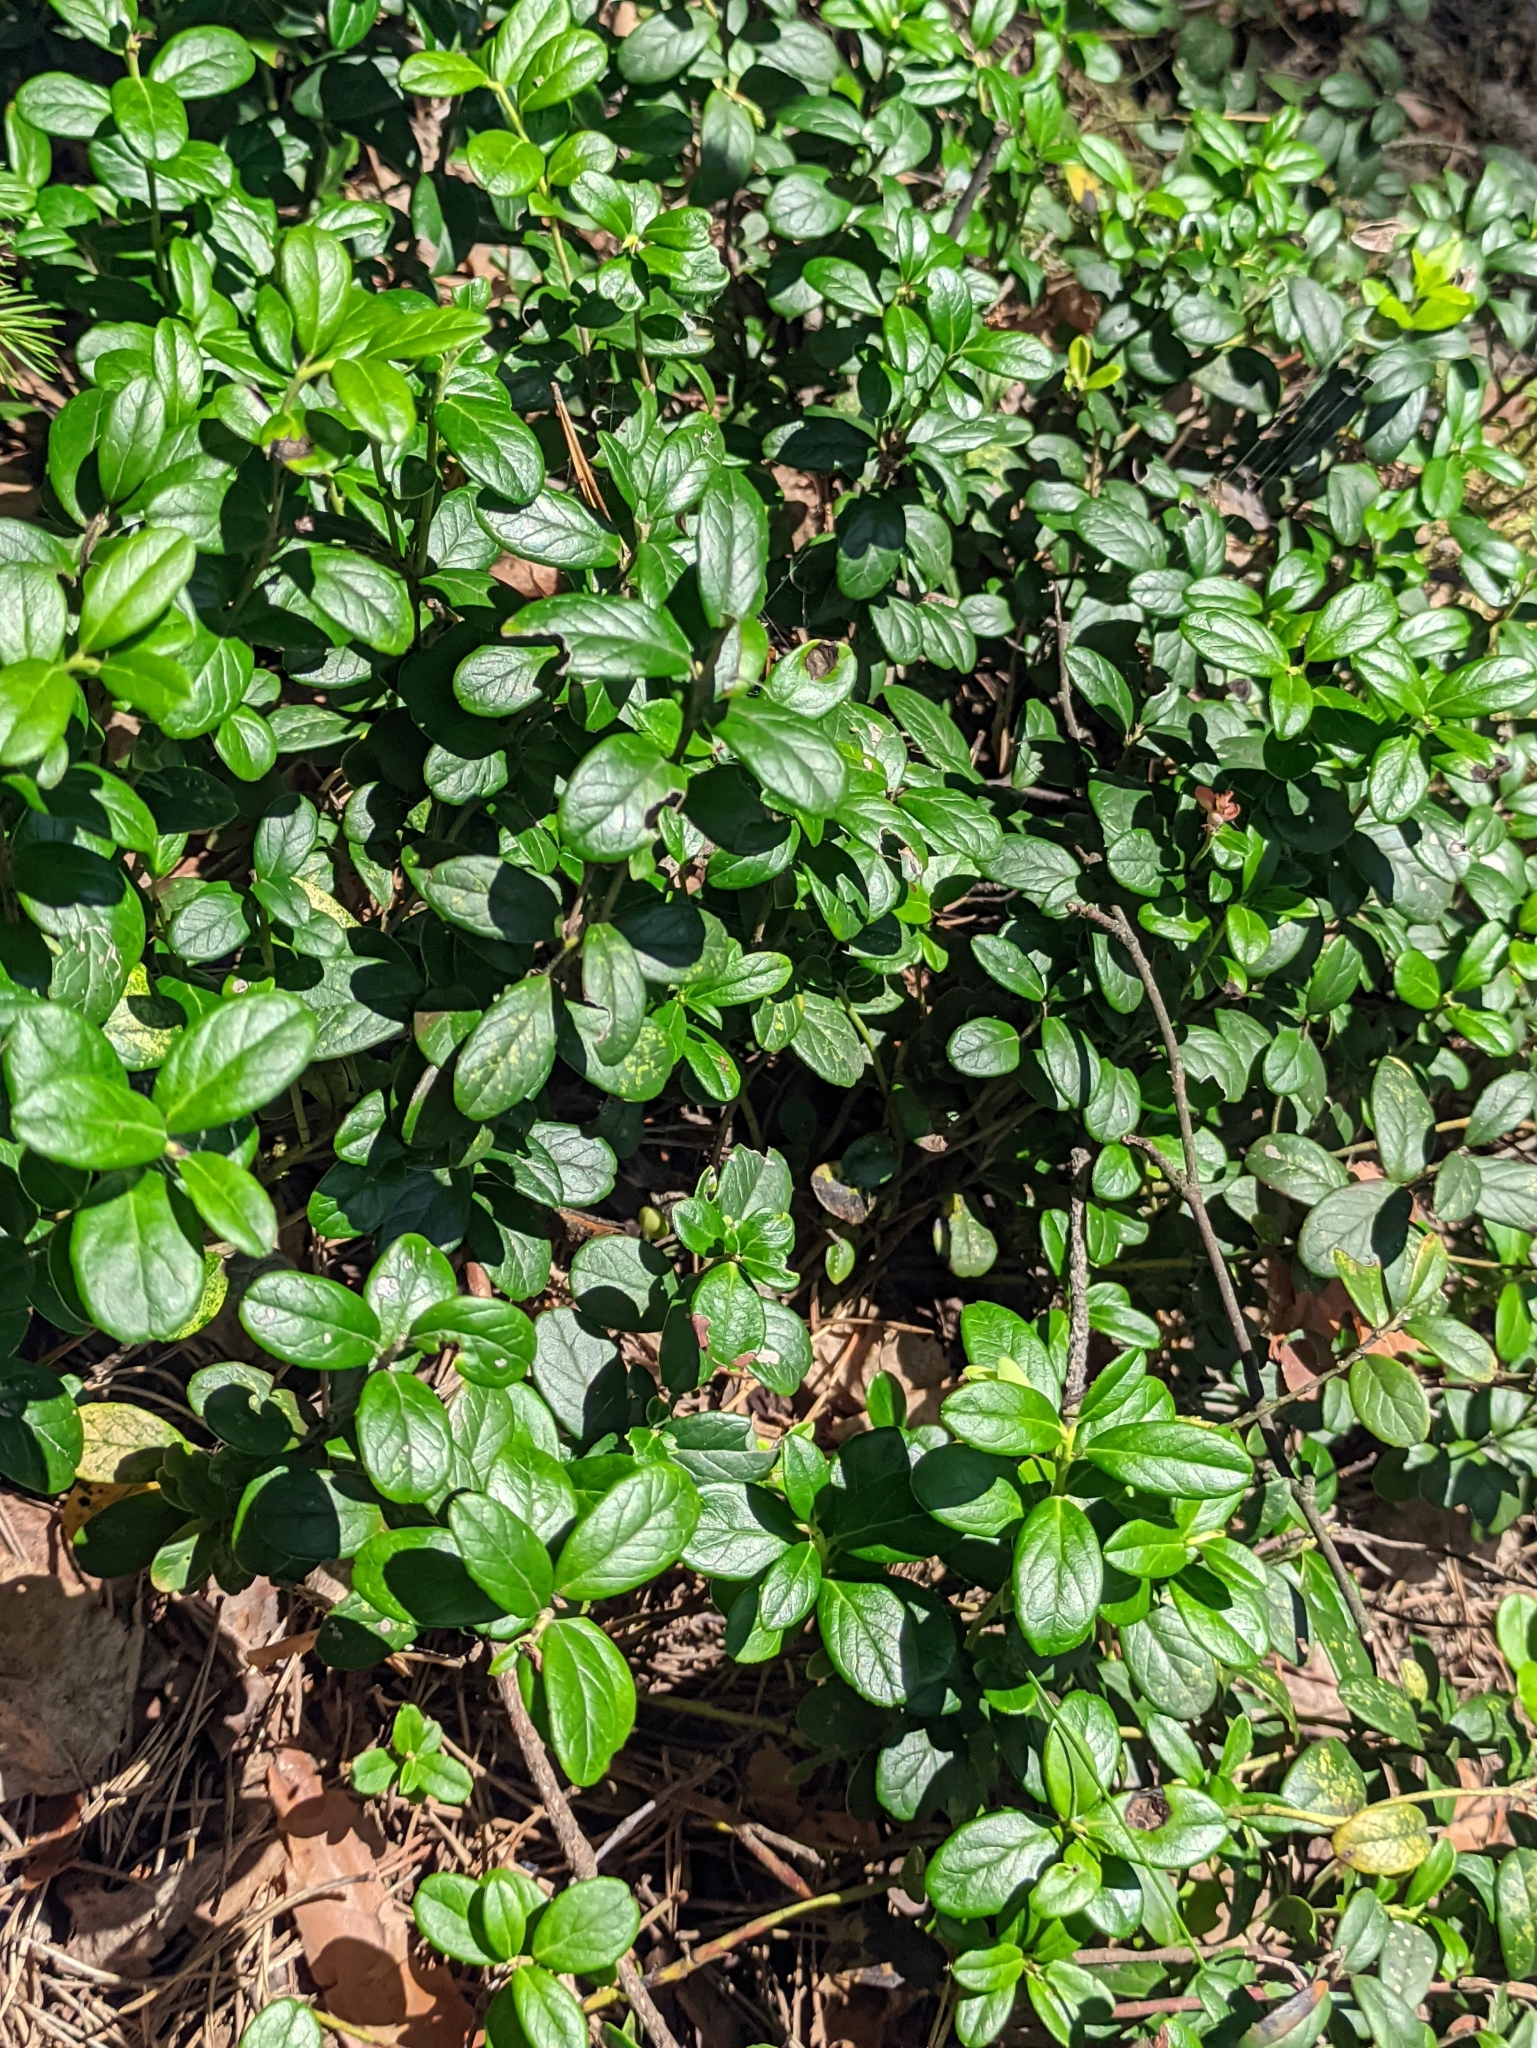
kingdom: Plantae
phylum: Tracheophyta
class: Magnoliopsida
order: Ericales
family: Ericaceae
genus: Vaccinium
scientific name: Vaccinium vitis-idaea
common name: Cowberry
